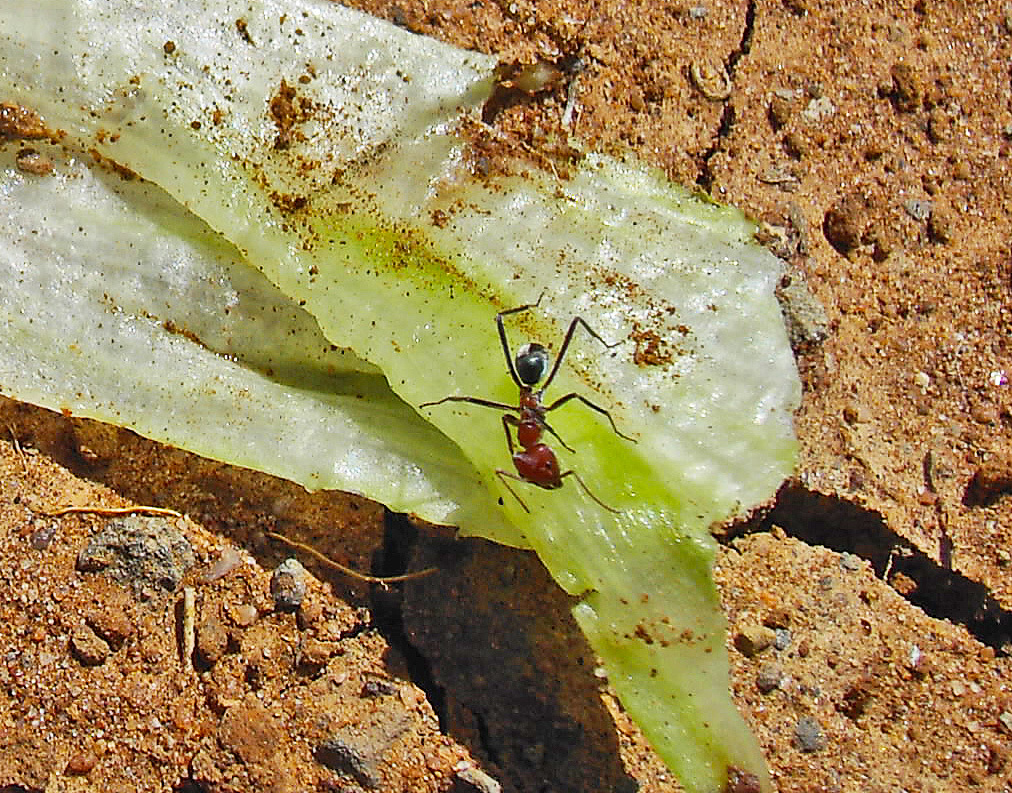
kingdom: Animalia
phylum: Arthropoda
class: Insecta
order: Hymenoptera
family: Formicidae
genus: Iridomyrmex
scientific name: Iridomyrmex purpureus
